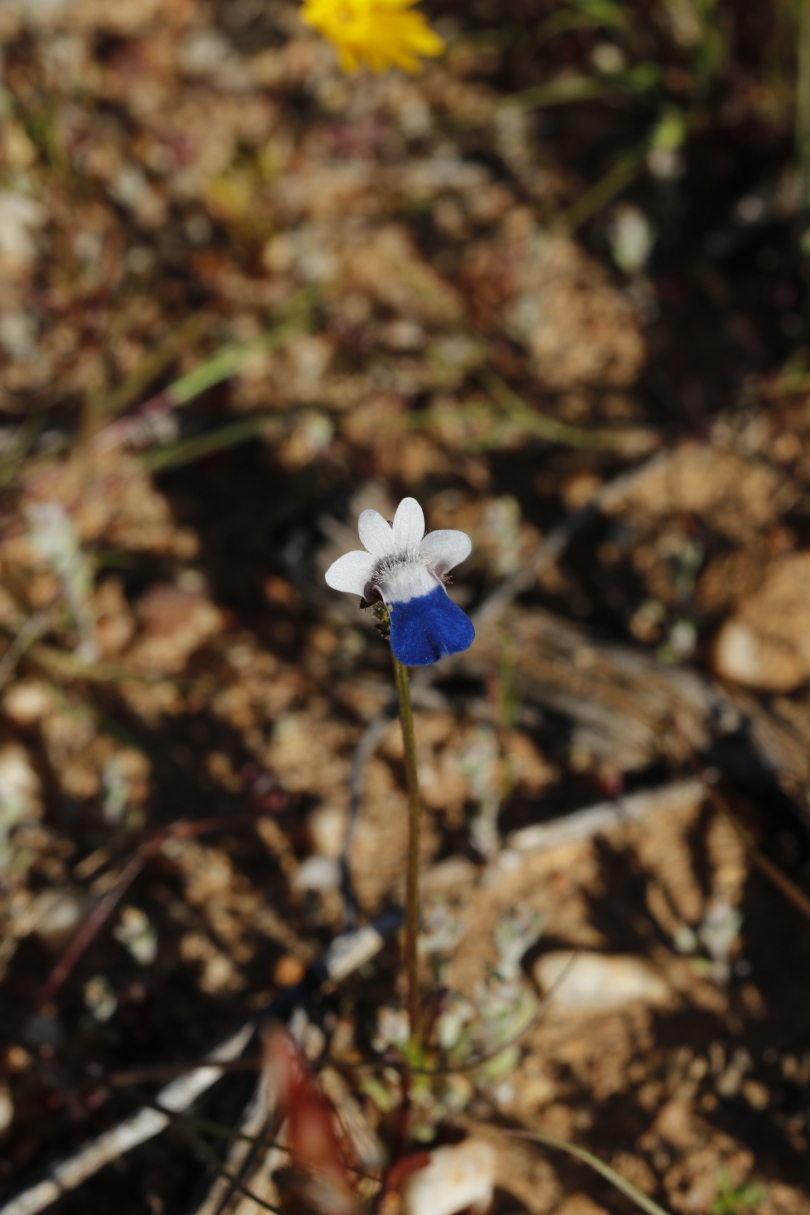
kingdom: Plantae
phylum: Tracheophyta
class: Magnoliopsida
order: Lamiales
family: Scrophulariaceae
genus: Nemesia
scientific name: Nemesia barbata
